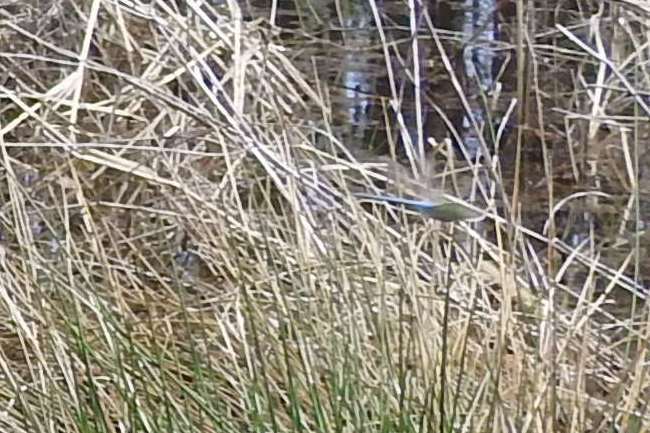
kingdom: Animalia
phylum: Arthropoda
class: Insecta
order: Odonata
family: Aeshnidae
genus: Anax
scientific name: Anax junius
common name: Common green darner
